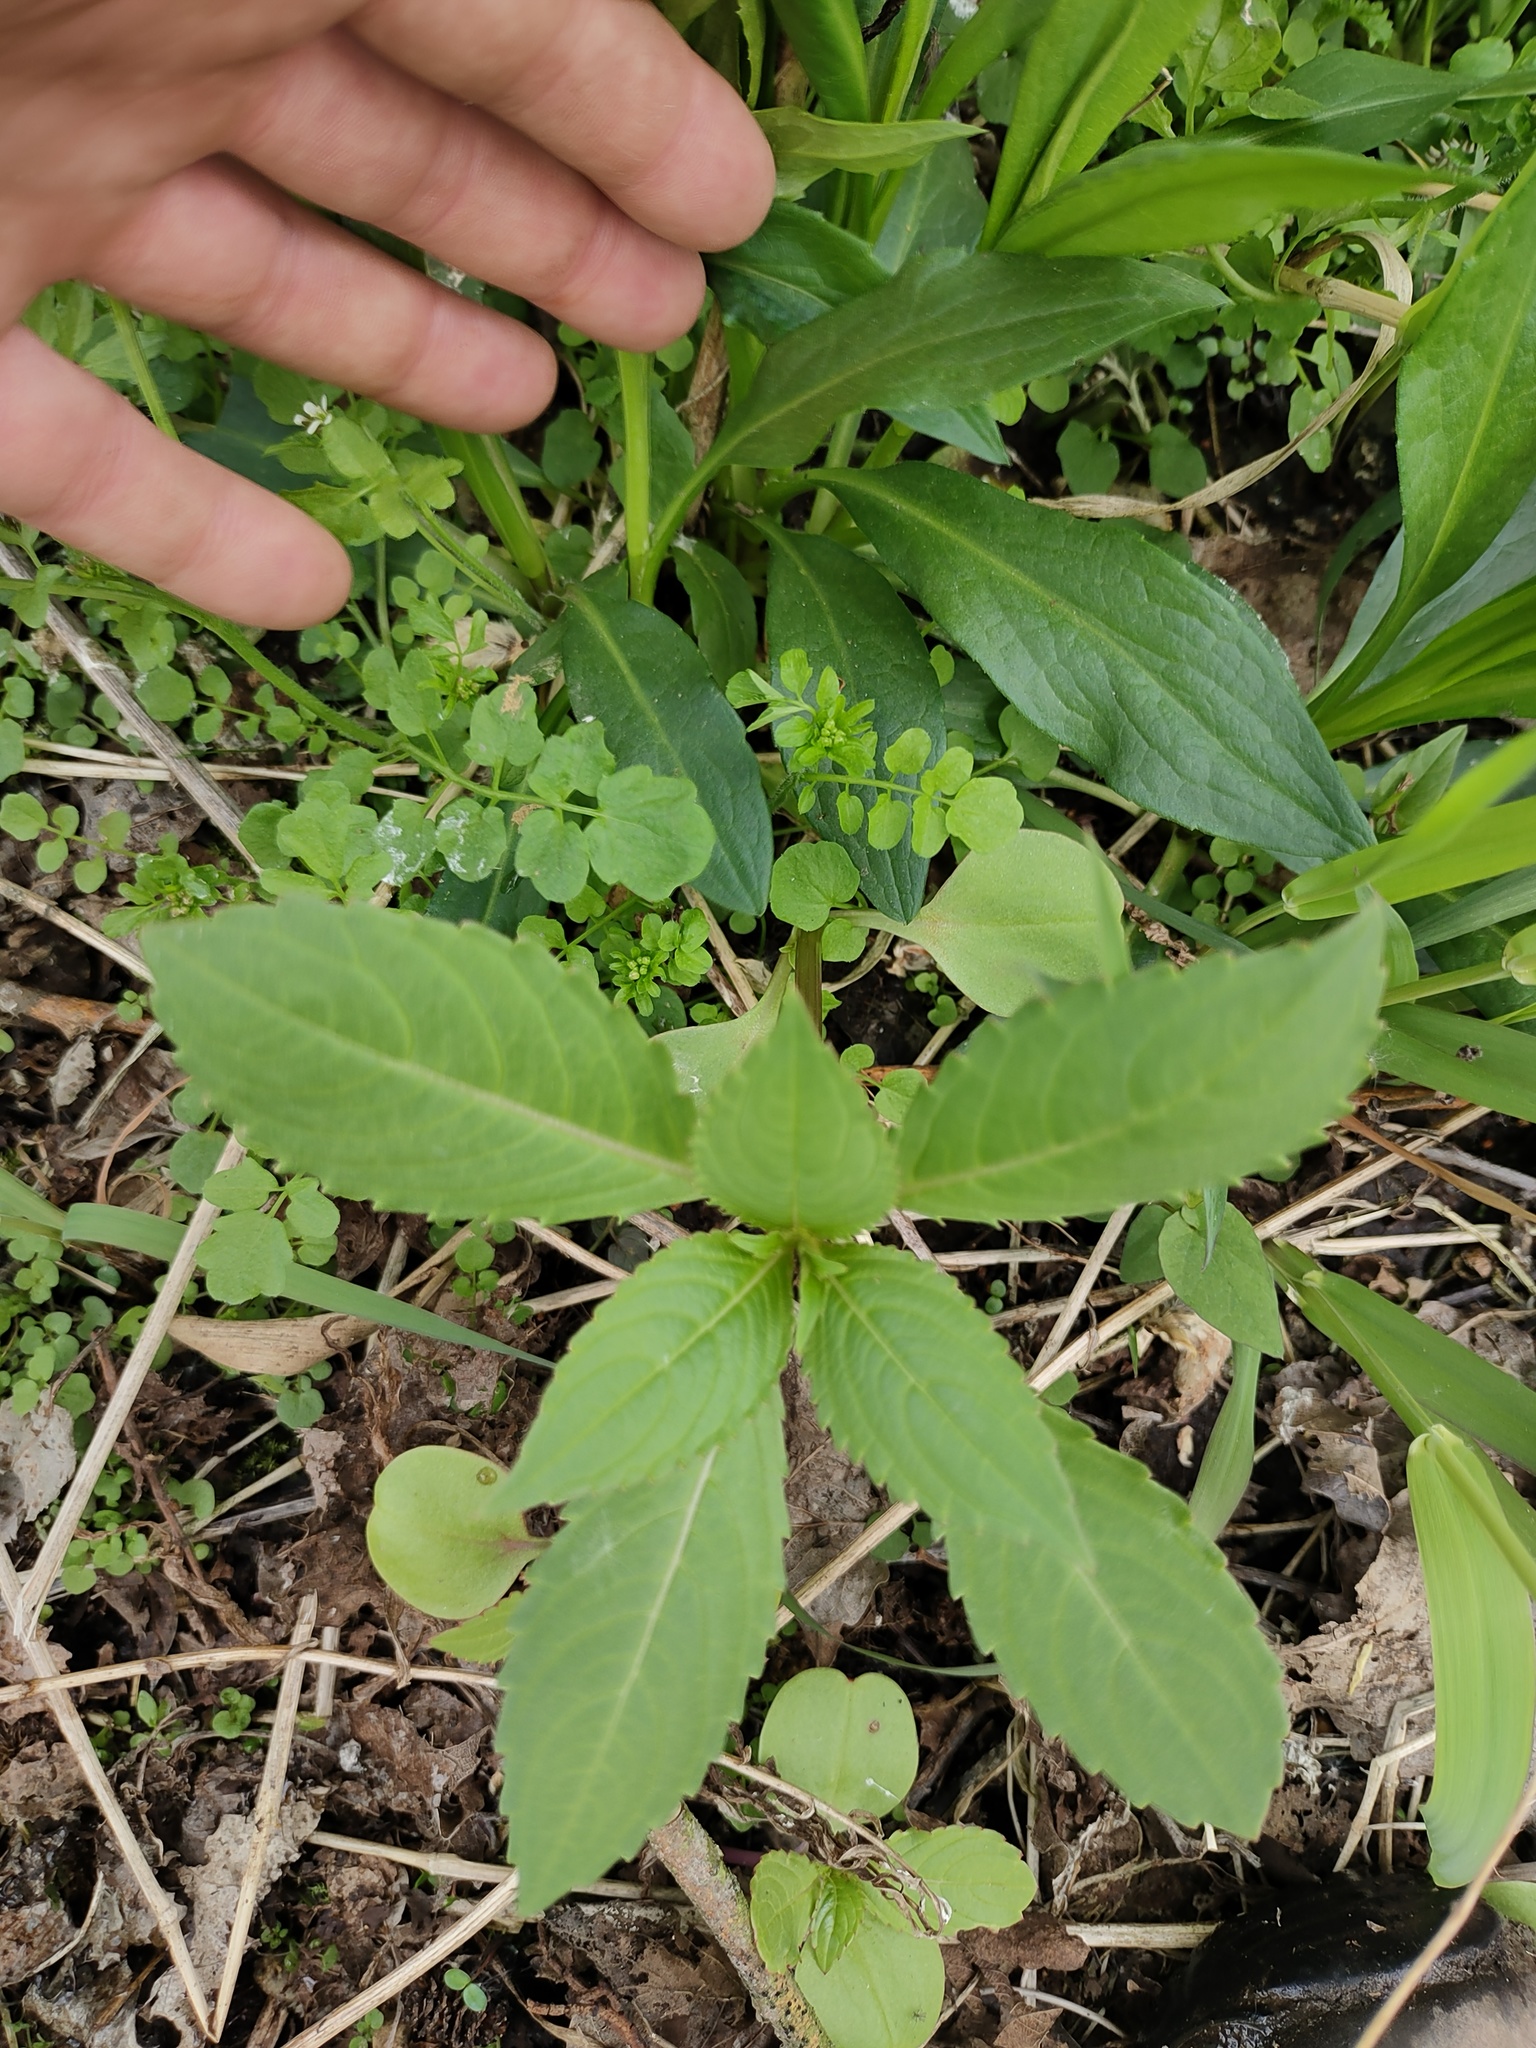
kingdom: Plantae
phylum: Tracheophyta
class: Magnoliopsida
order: Ericales
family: Balsaminaceae
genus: Impatiens
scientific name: Impatiens glandulifera
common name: Himalayan balsam
